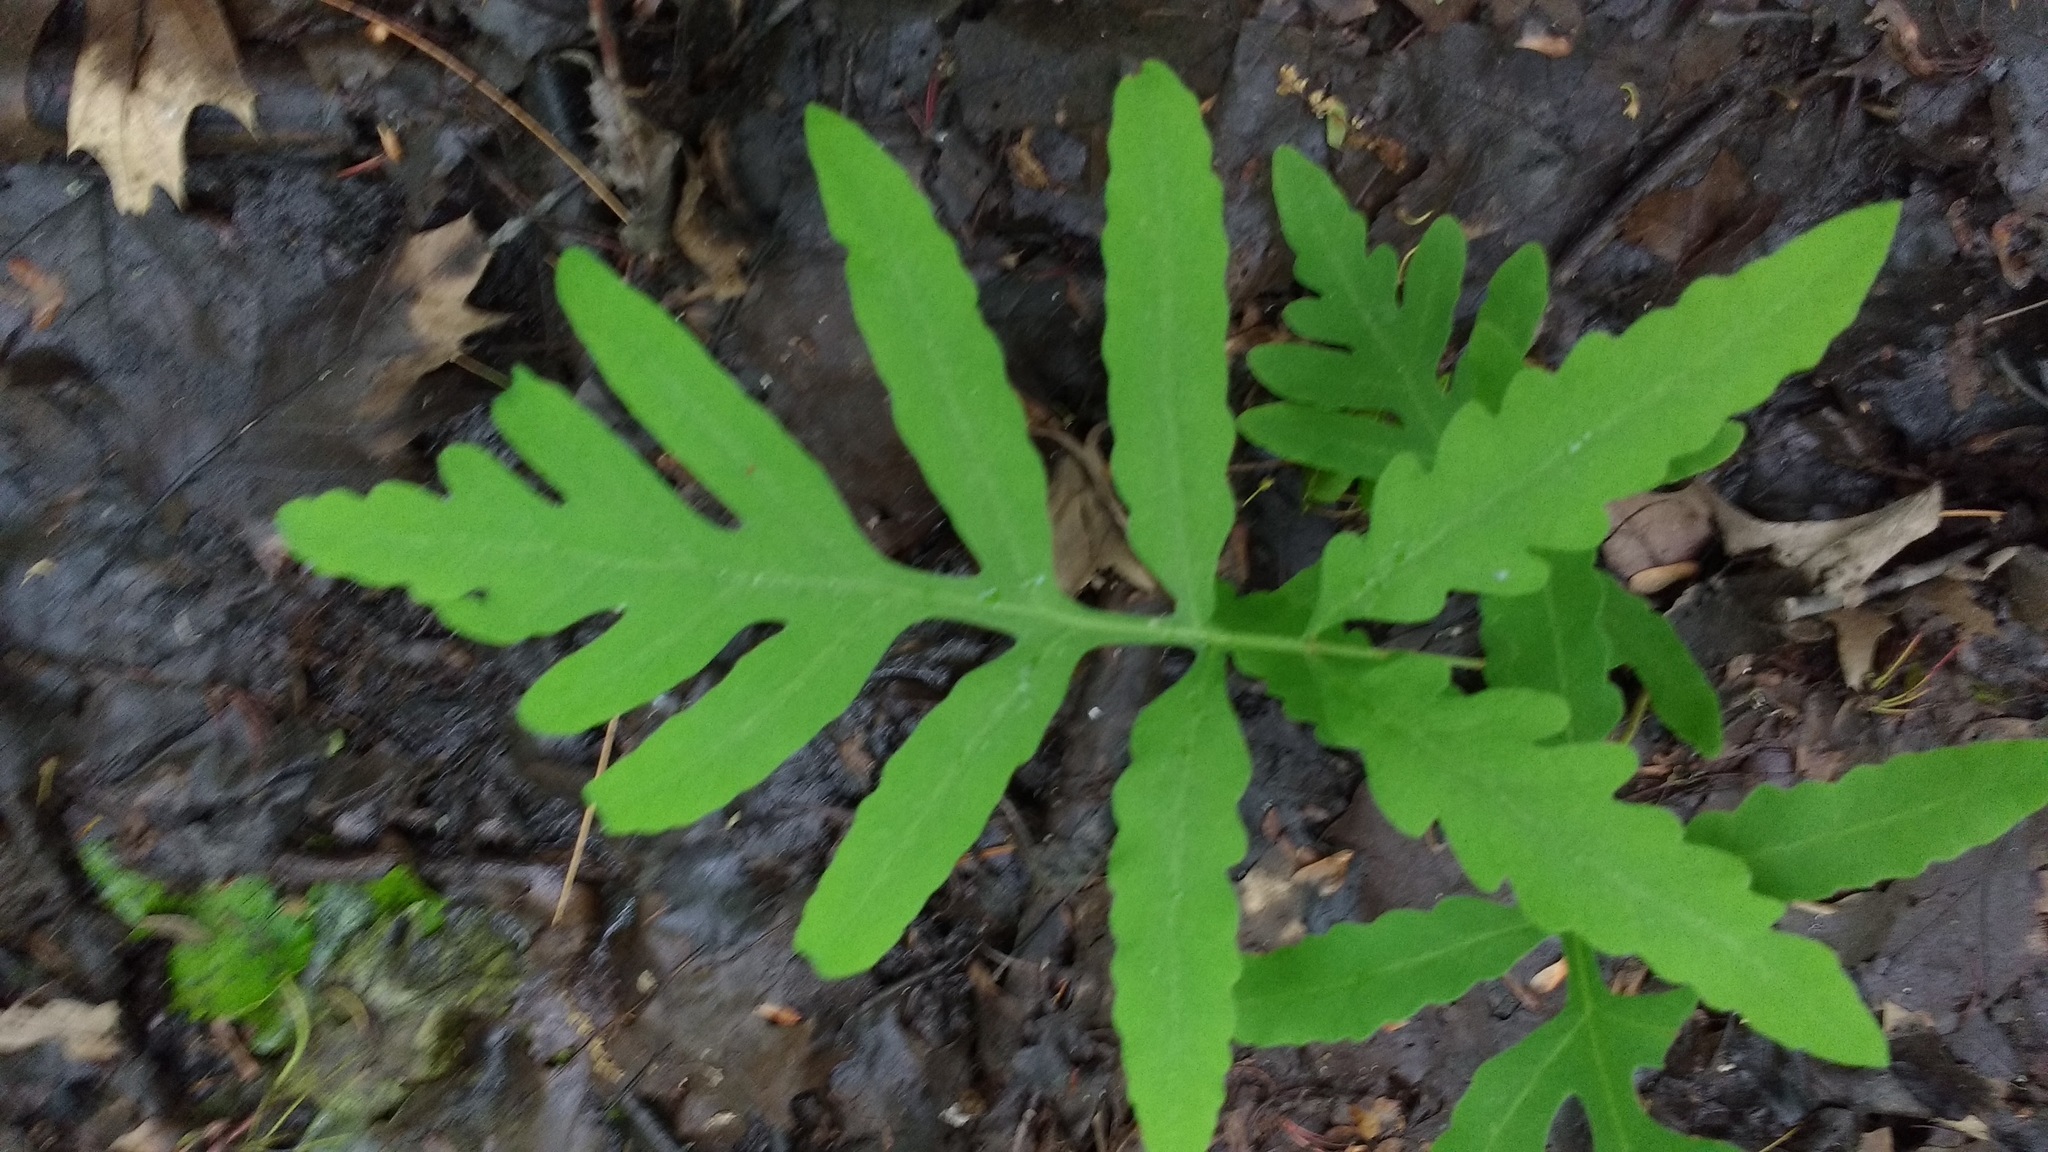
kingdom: Plantae
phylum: Tracheophyta
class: Polypodiopsida
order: Polypodiales
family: Onocleaceae
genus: Onoclea
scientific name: Onoclea sensibilis
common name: Sensitive fern
